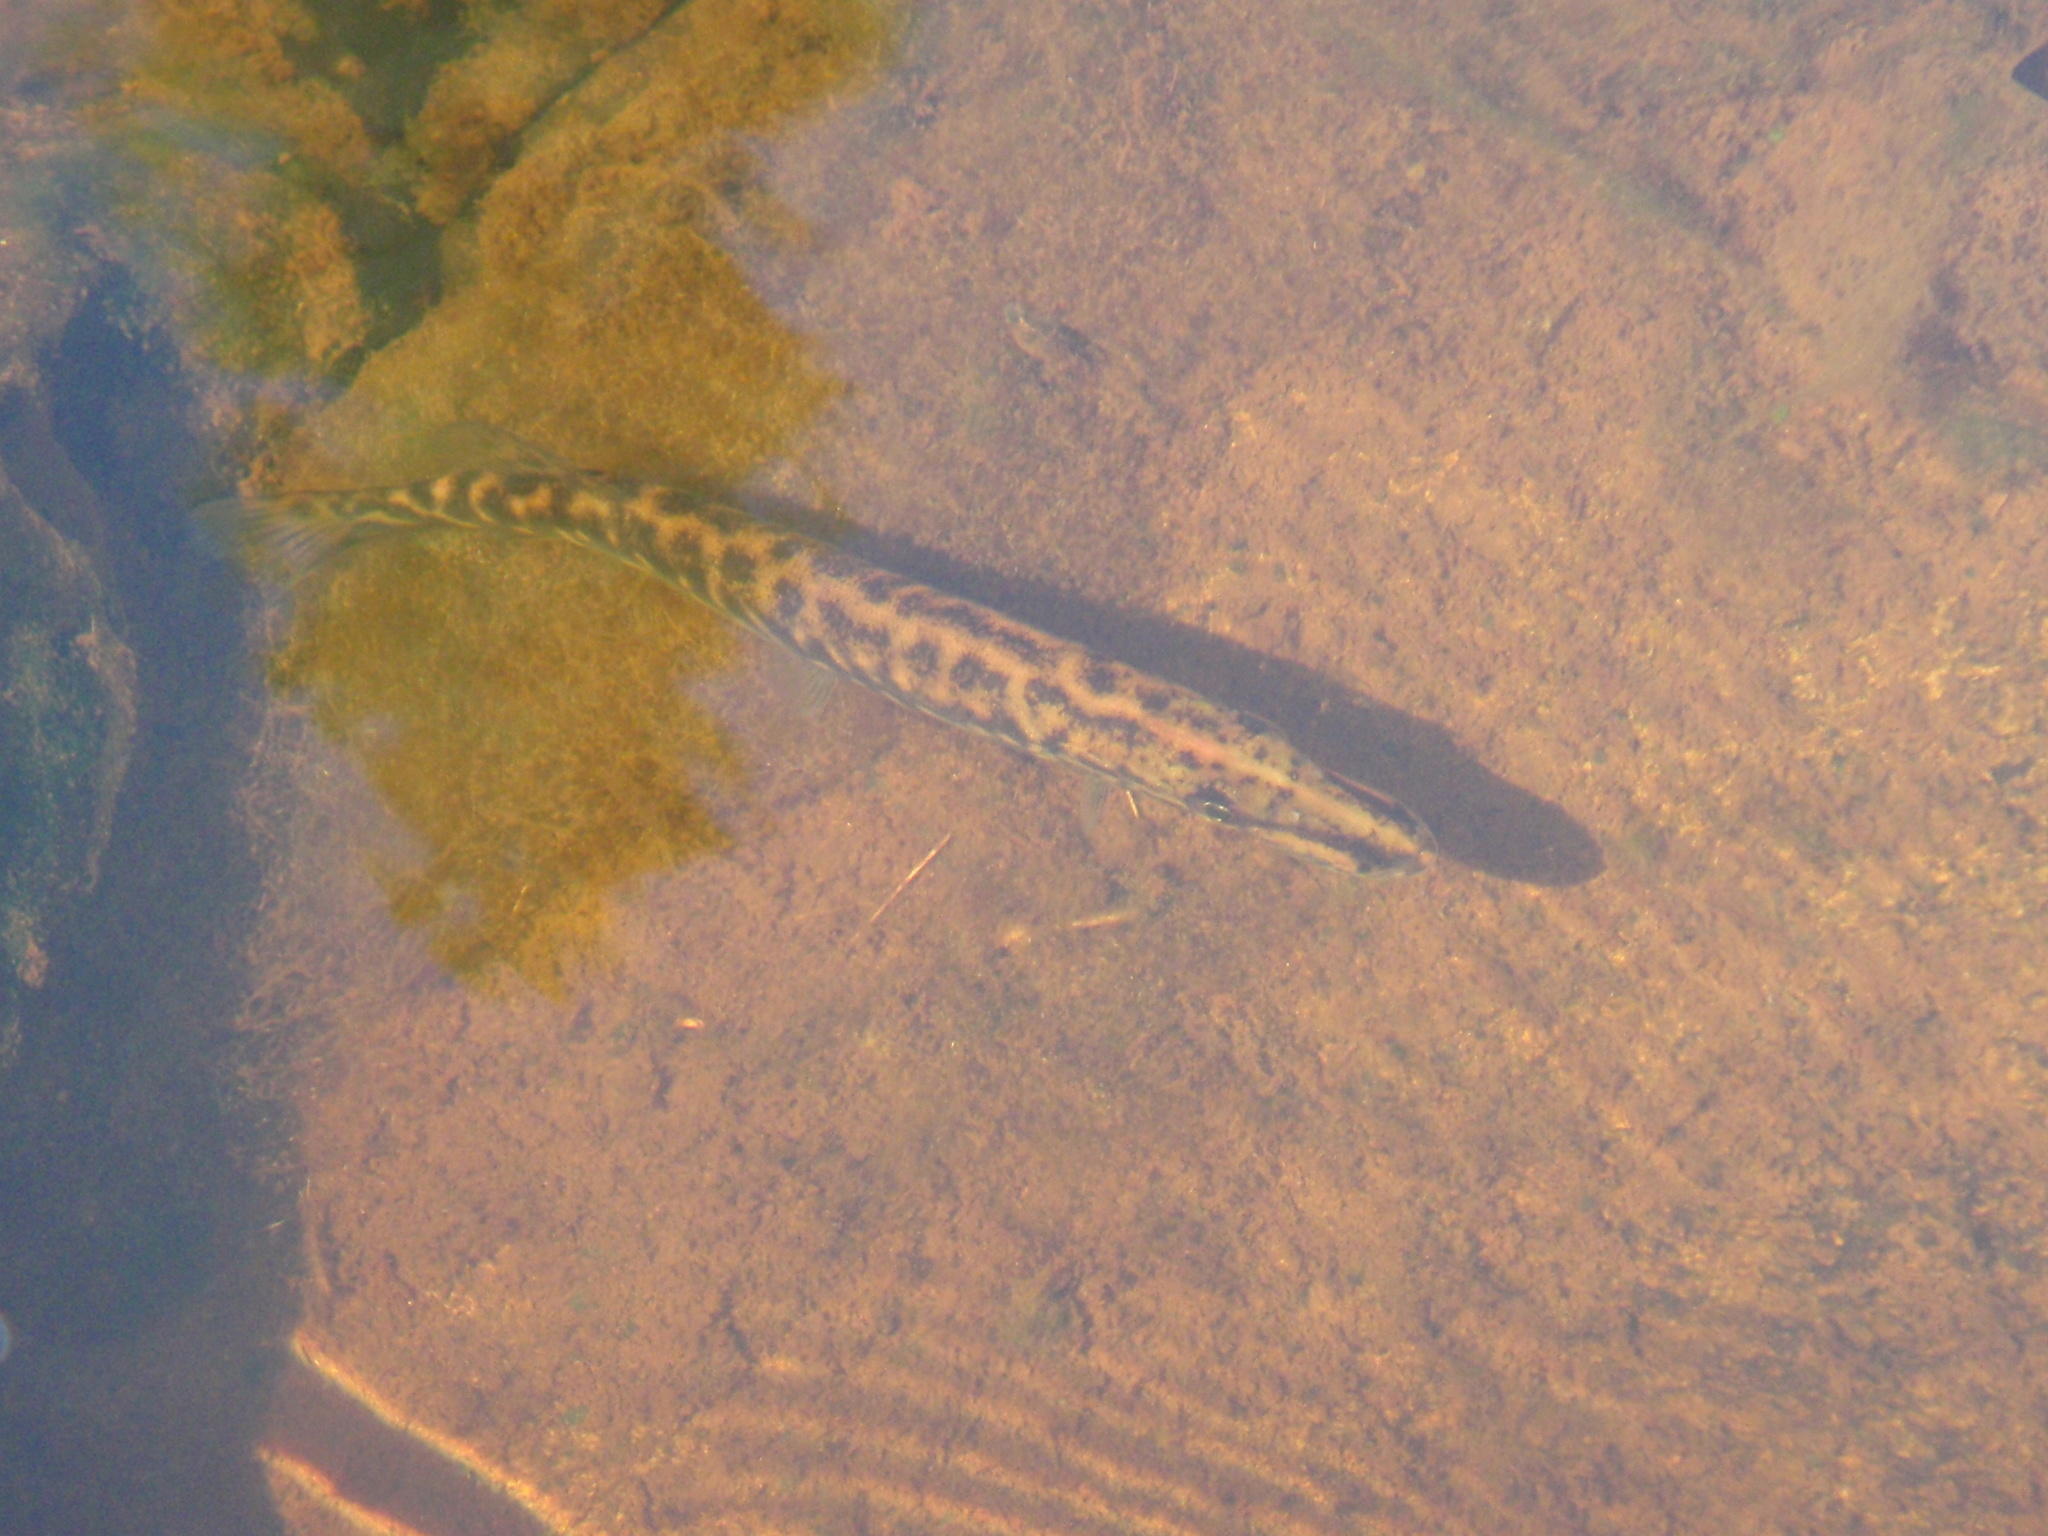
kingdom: Animalia
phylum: Chordata
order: Esociformes
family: Esocidae
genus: Esox
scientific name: Esox lucius
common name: Northern pike
